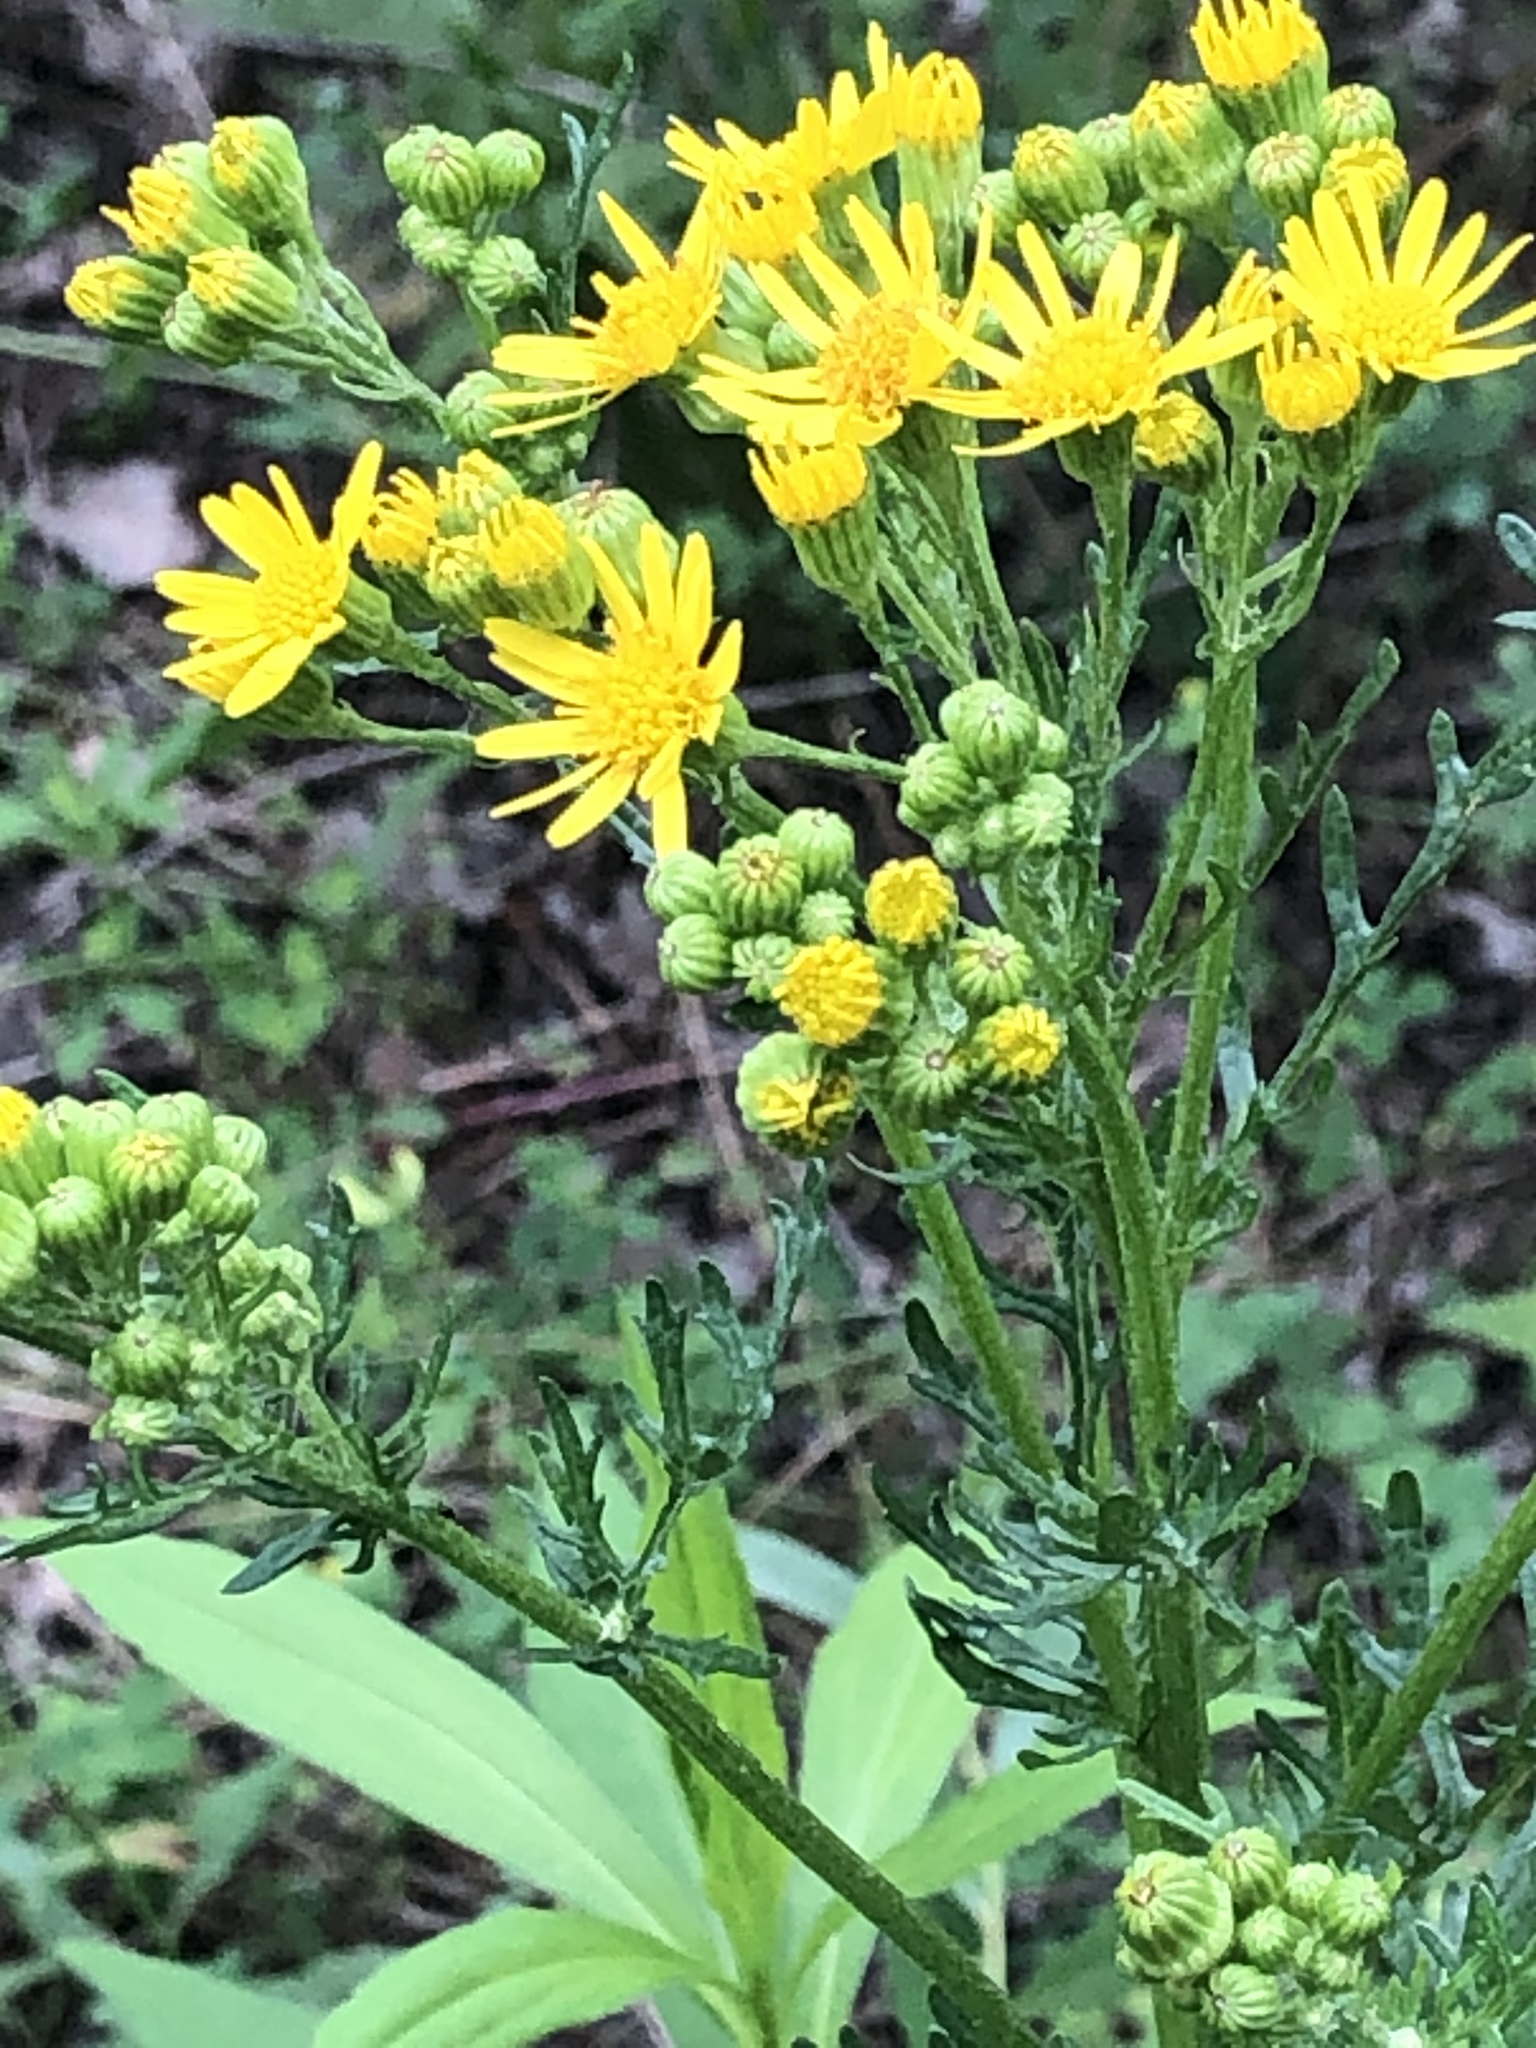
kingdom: Plantae
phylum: Tracheophyta
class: Magnoliopsida
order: Asterales
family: Asteraceae
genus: Jacobaea
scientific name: Jacobaea vulgaris
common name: Stinking willie
